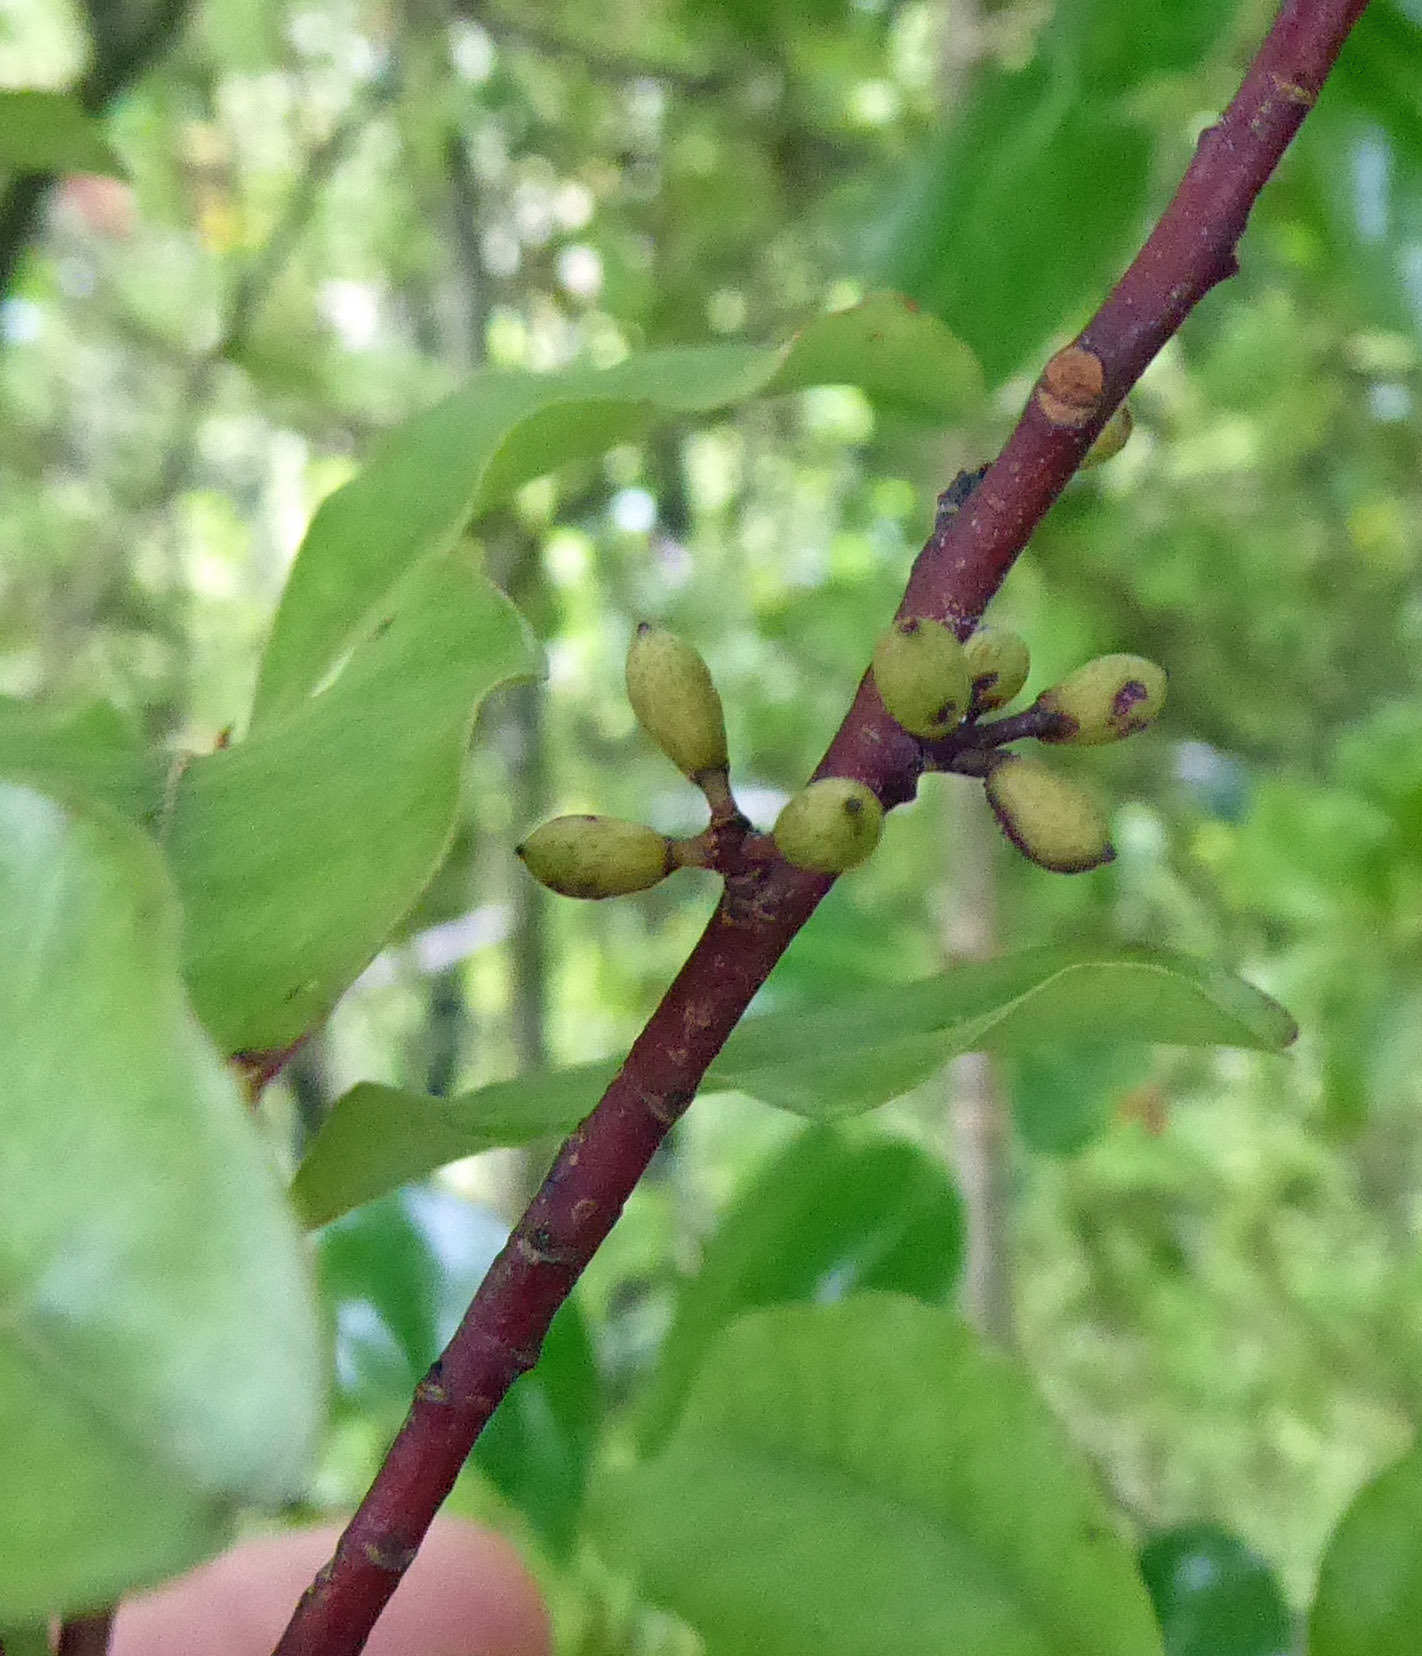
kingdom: Plantae
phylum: Tracheophyta
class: Magnoliopsida
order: Ericales
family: Primulaceae
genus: Myrsine
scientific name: Myrsine australis
